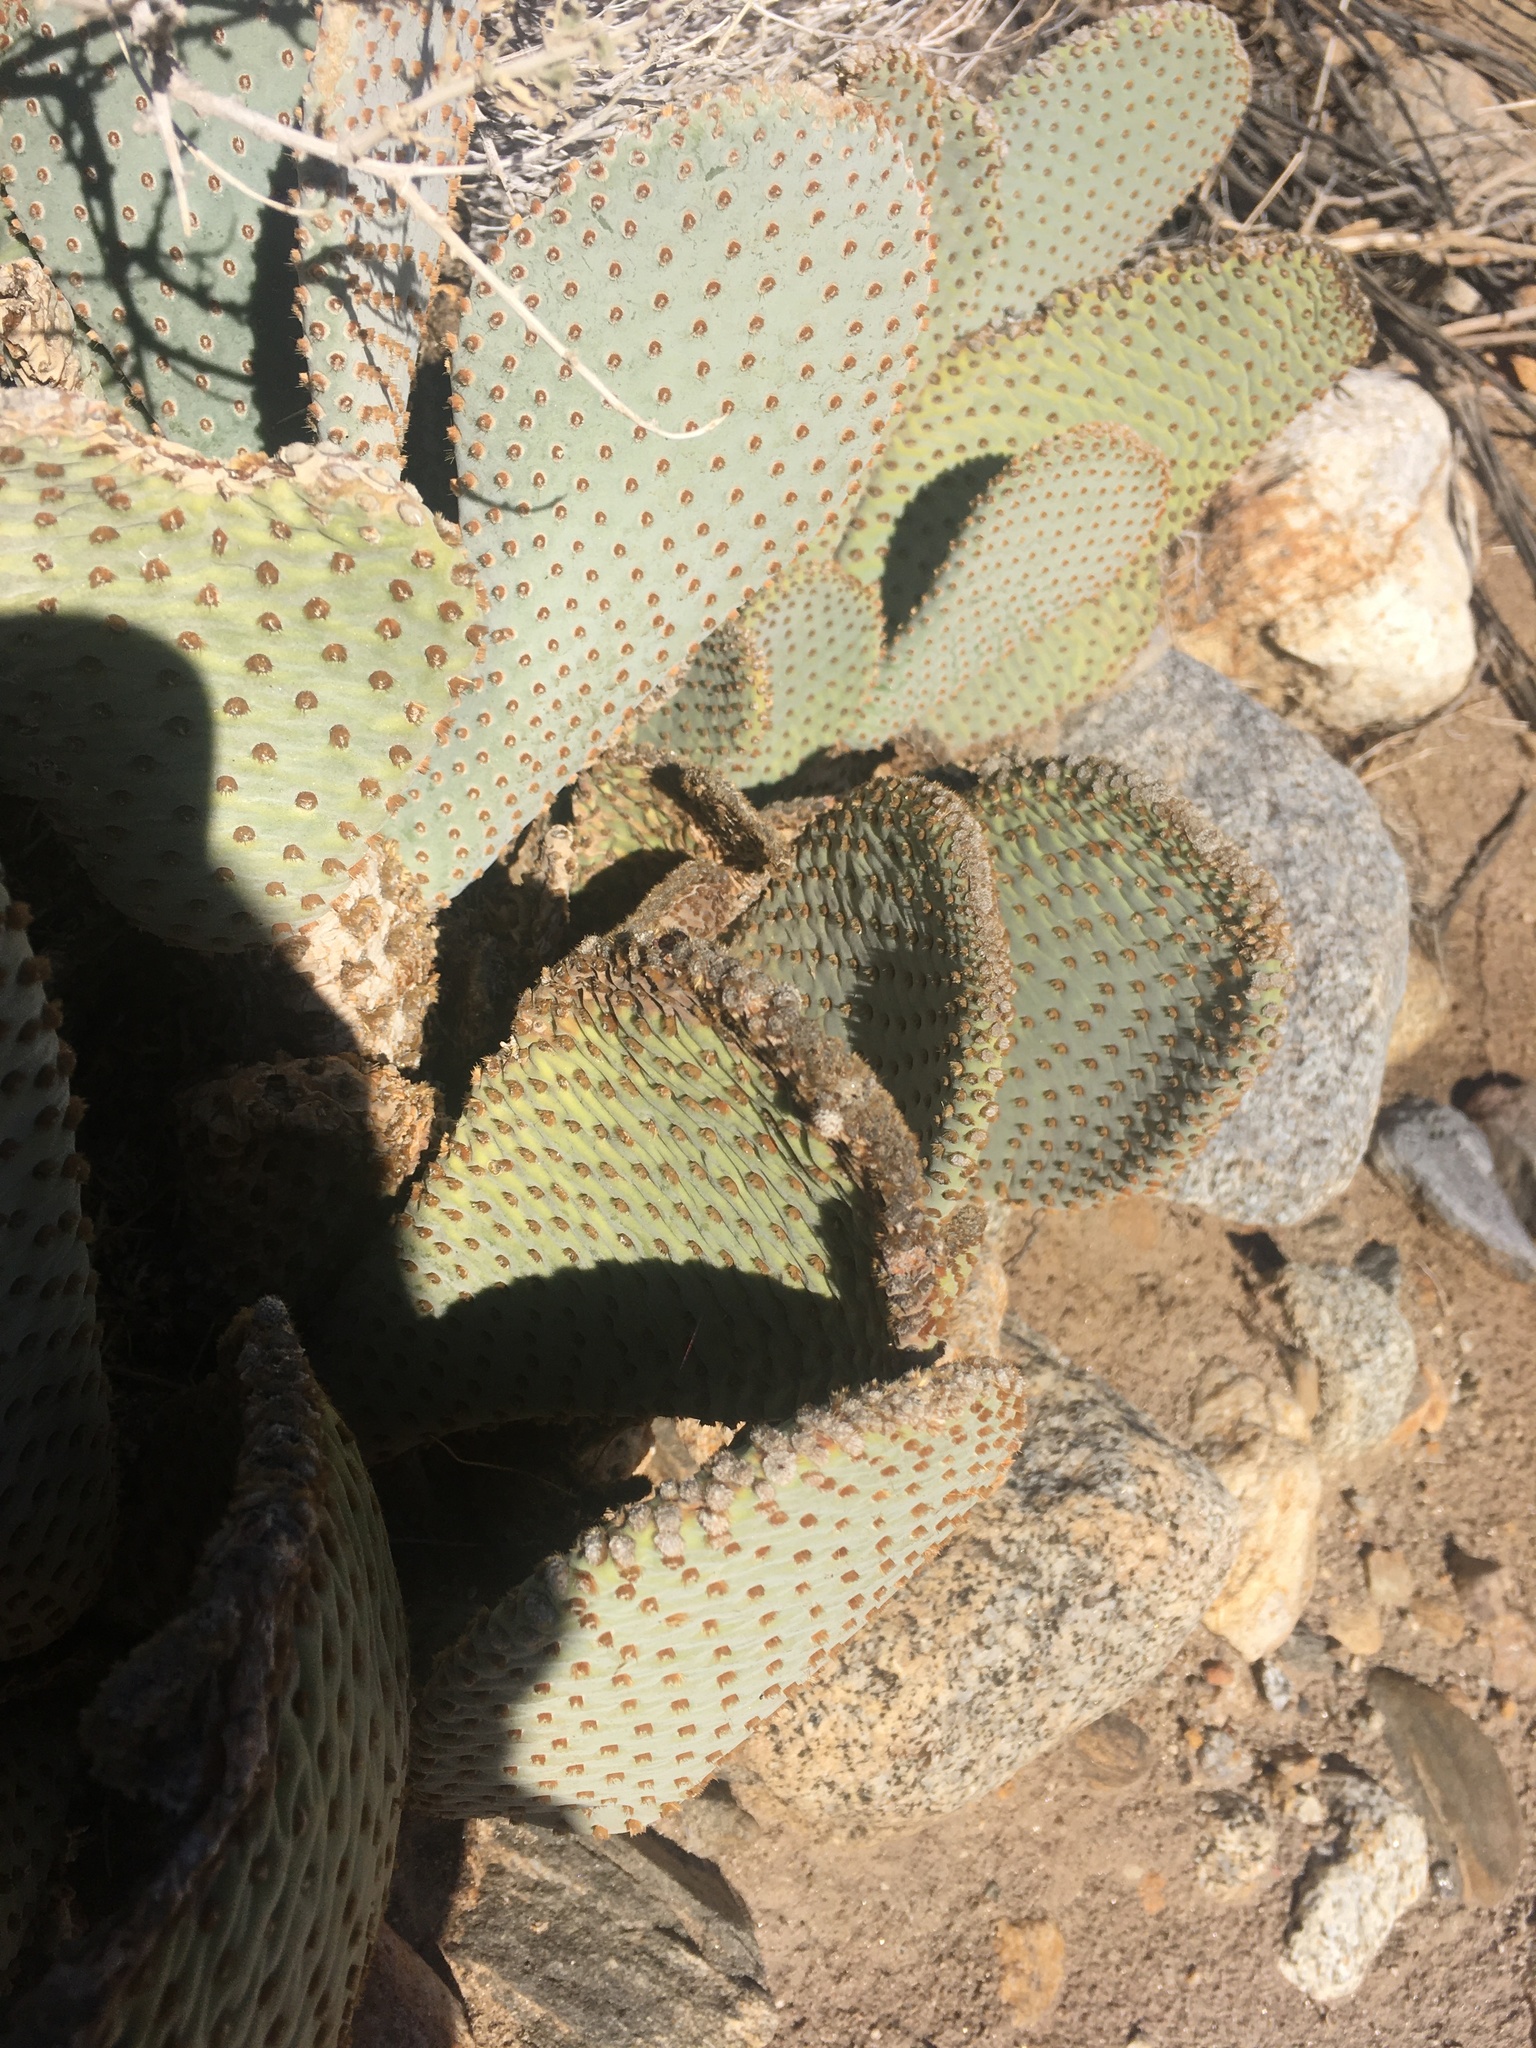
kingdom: Plantae
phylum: Tracheophyta
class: Magnoliopsida
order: Caryophyllales
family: Cactaceae
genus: Opuntia
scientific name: Opuntia basilaris
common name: Beavertail prickly-pear
